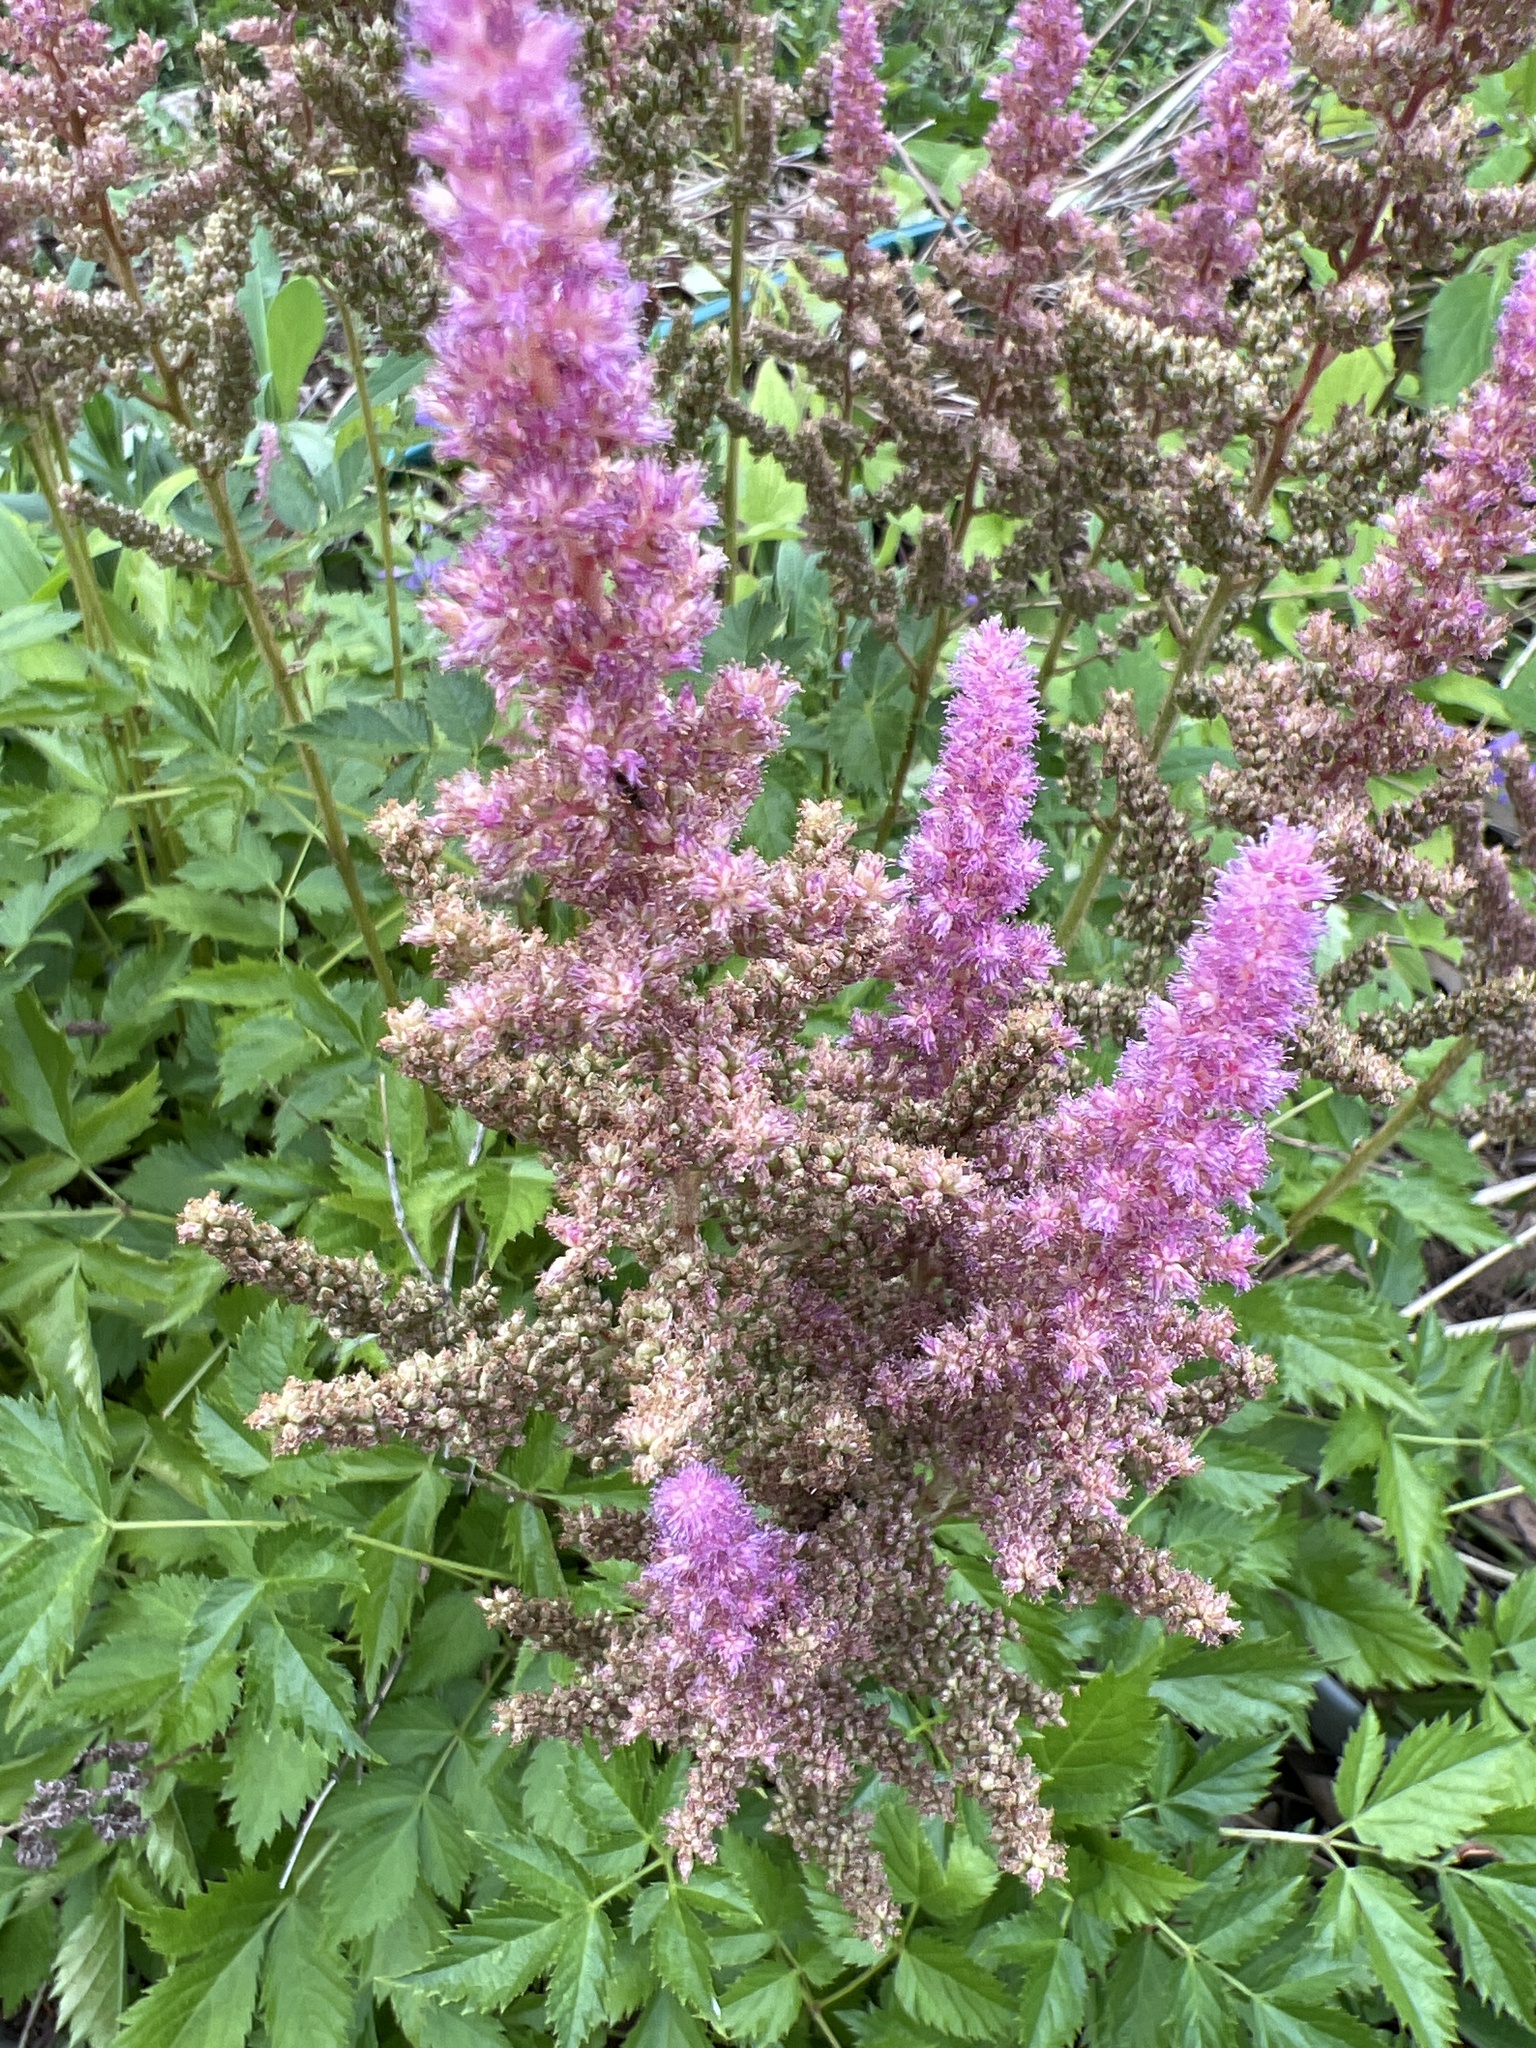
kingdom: Plantae
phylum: Tracheophyta
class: Magnoliopsida
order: Rosales
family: Rosaceae
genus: Spiraea
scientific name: Spiraea tomentosa
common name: Hardhack
